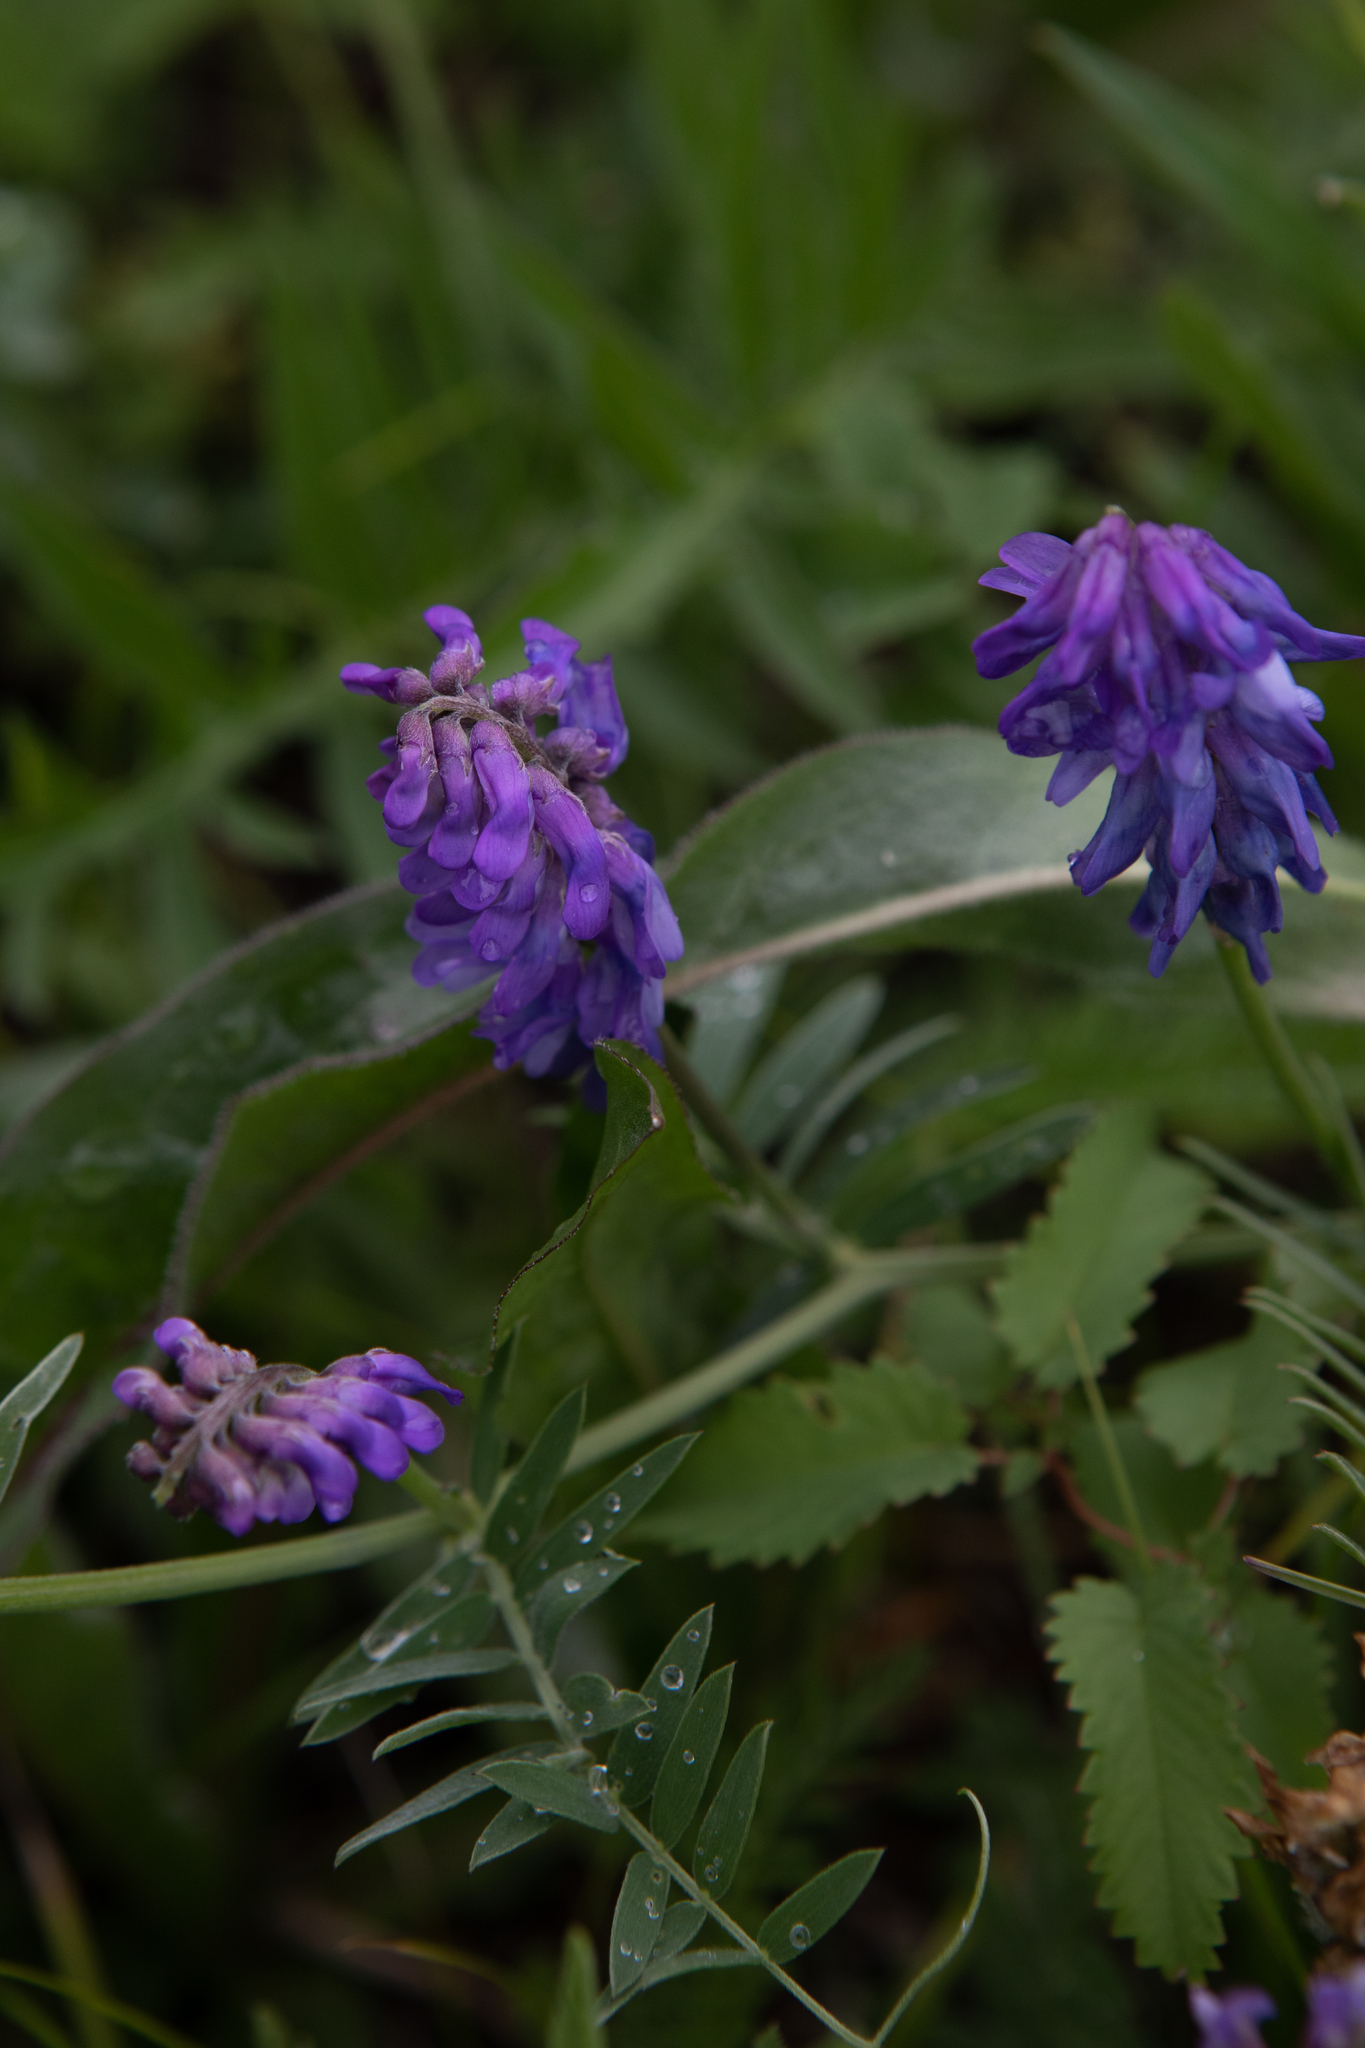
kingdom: Plantae
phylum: Tracheophyta
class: Magnoliopsida
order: Fabales
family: Fabaceae
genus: Vicia
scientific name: Vicia cracca
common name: Bird vetch
